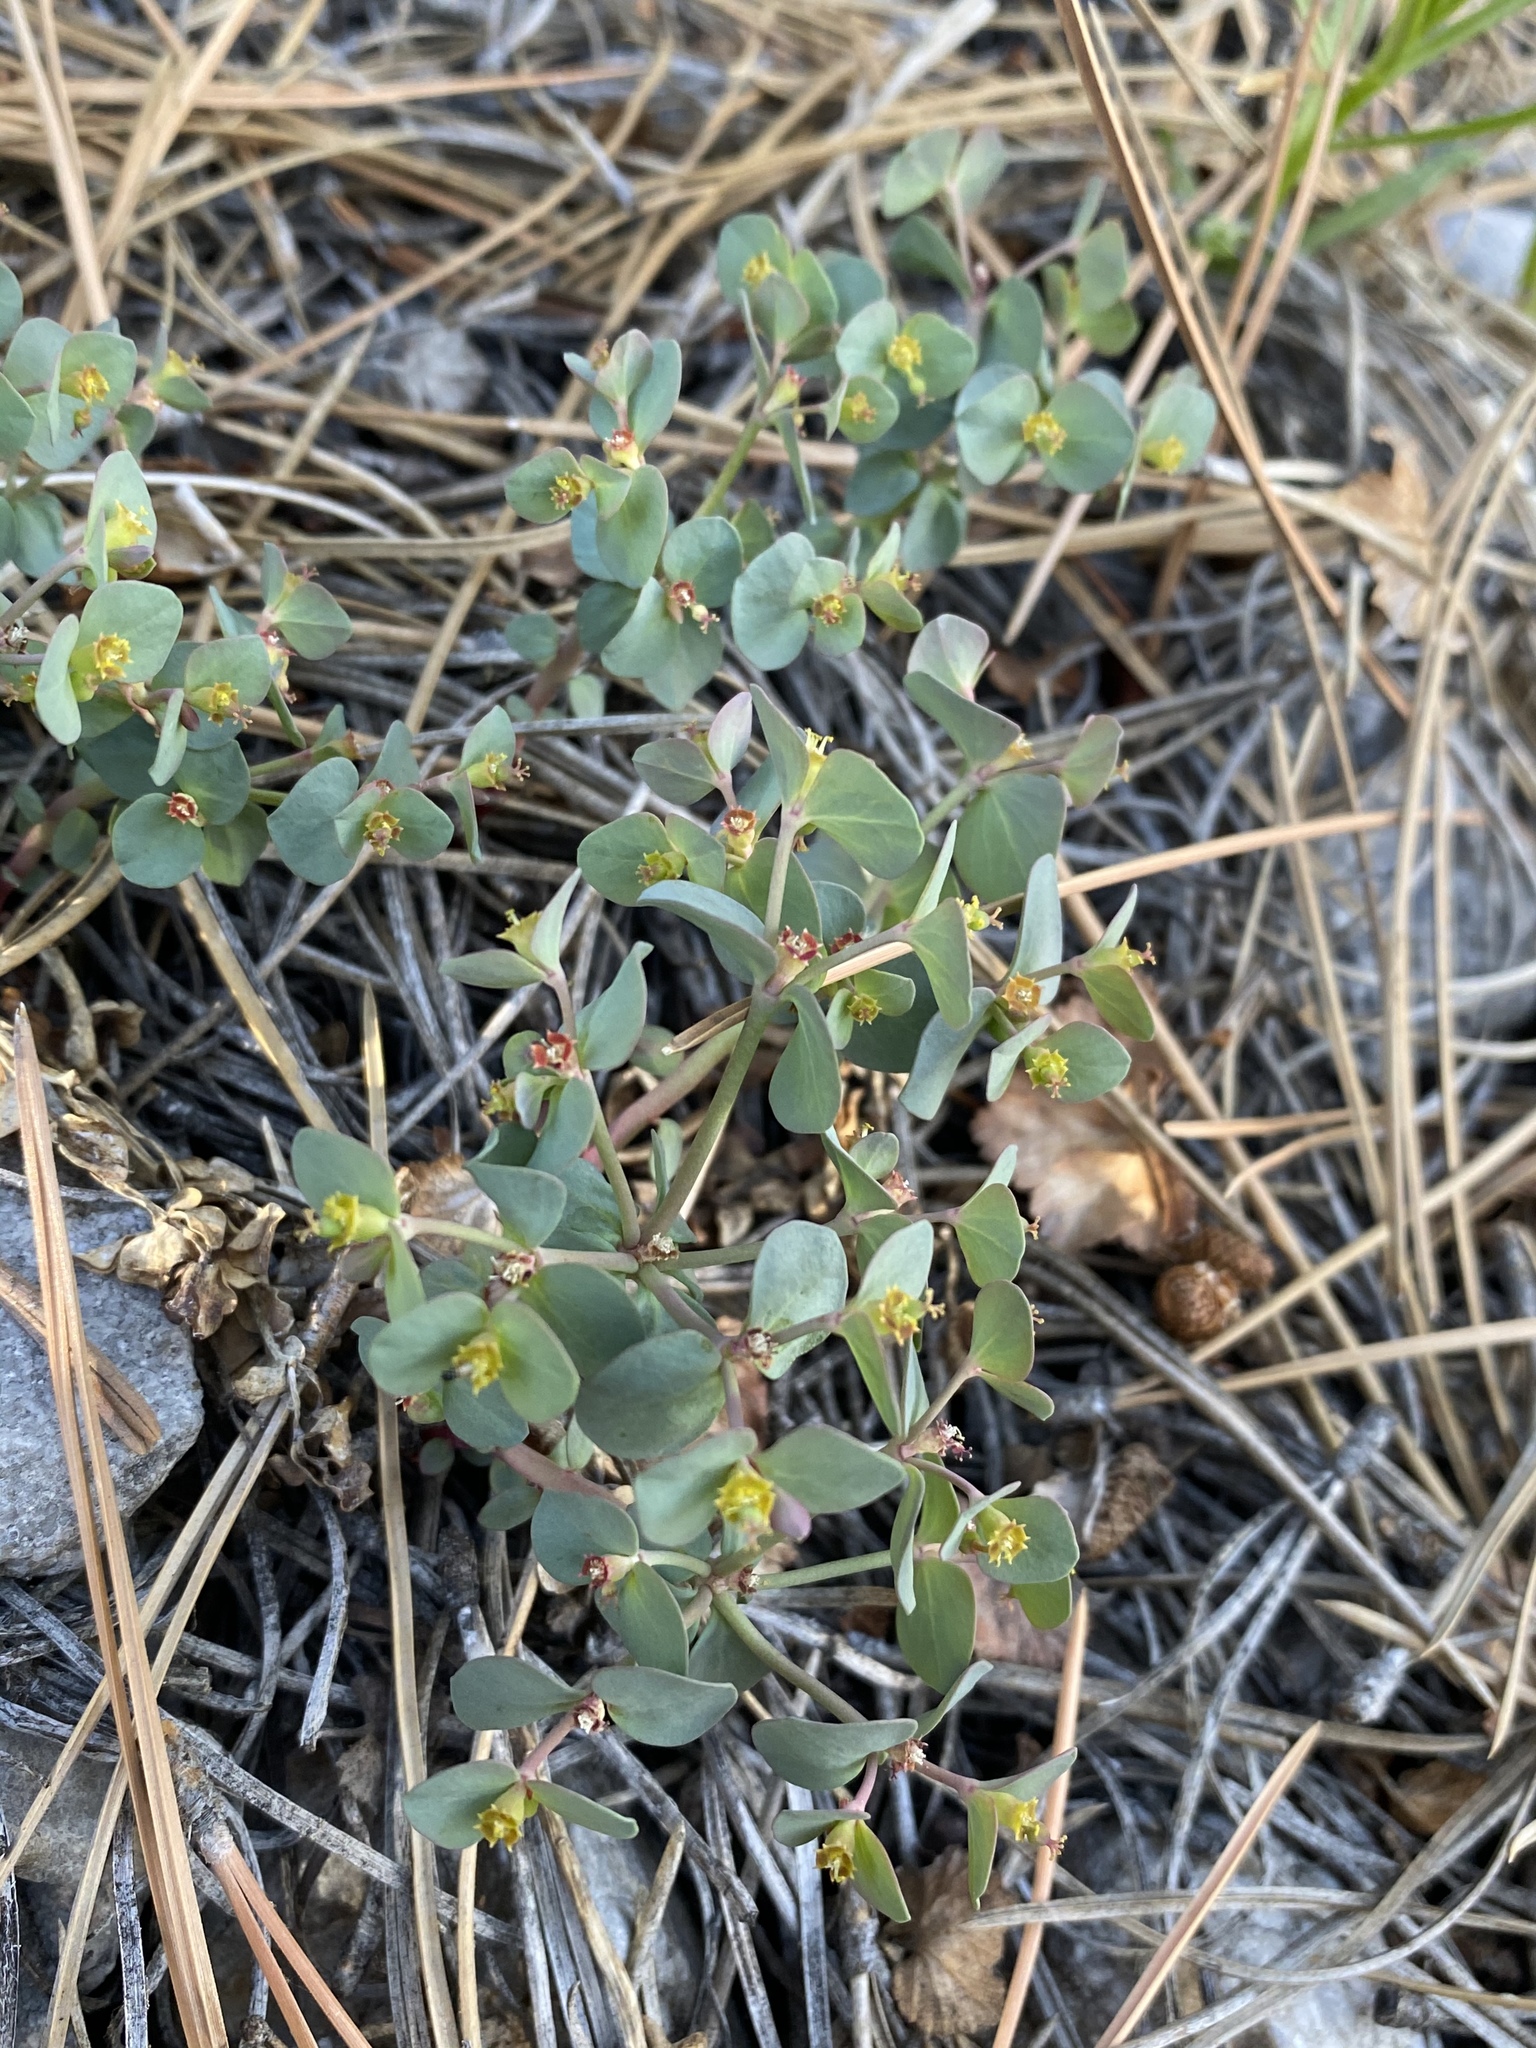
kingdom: Plantae
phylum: Tracheophyta
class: Magnoliopsida
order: Malpighiales
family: Euphorbiaceae
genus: Euphorbia
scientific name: Euphorbia brachycera
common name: Shorthorn spurge
